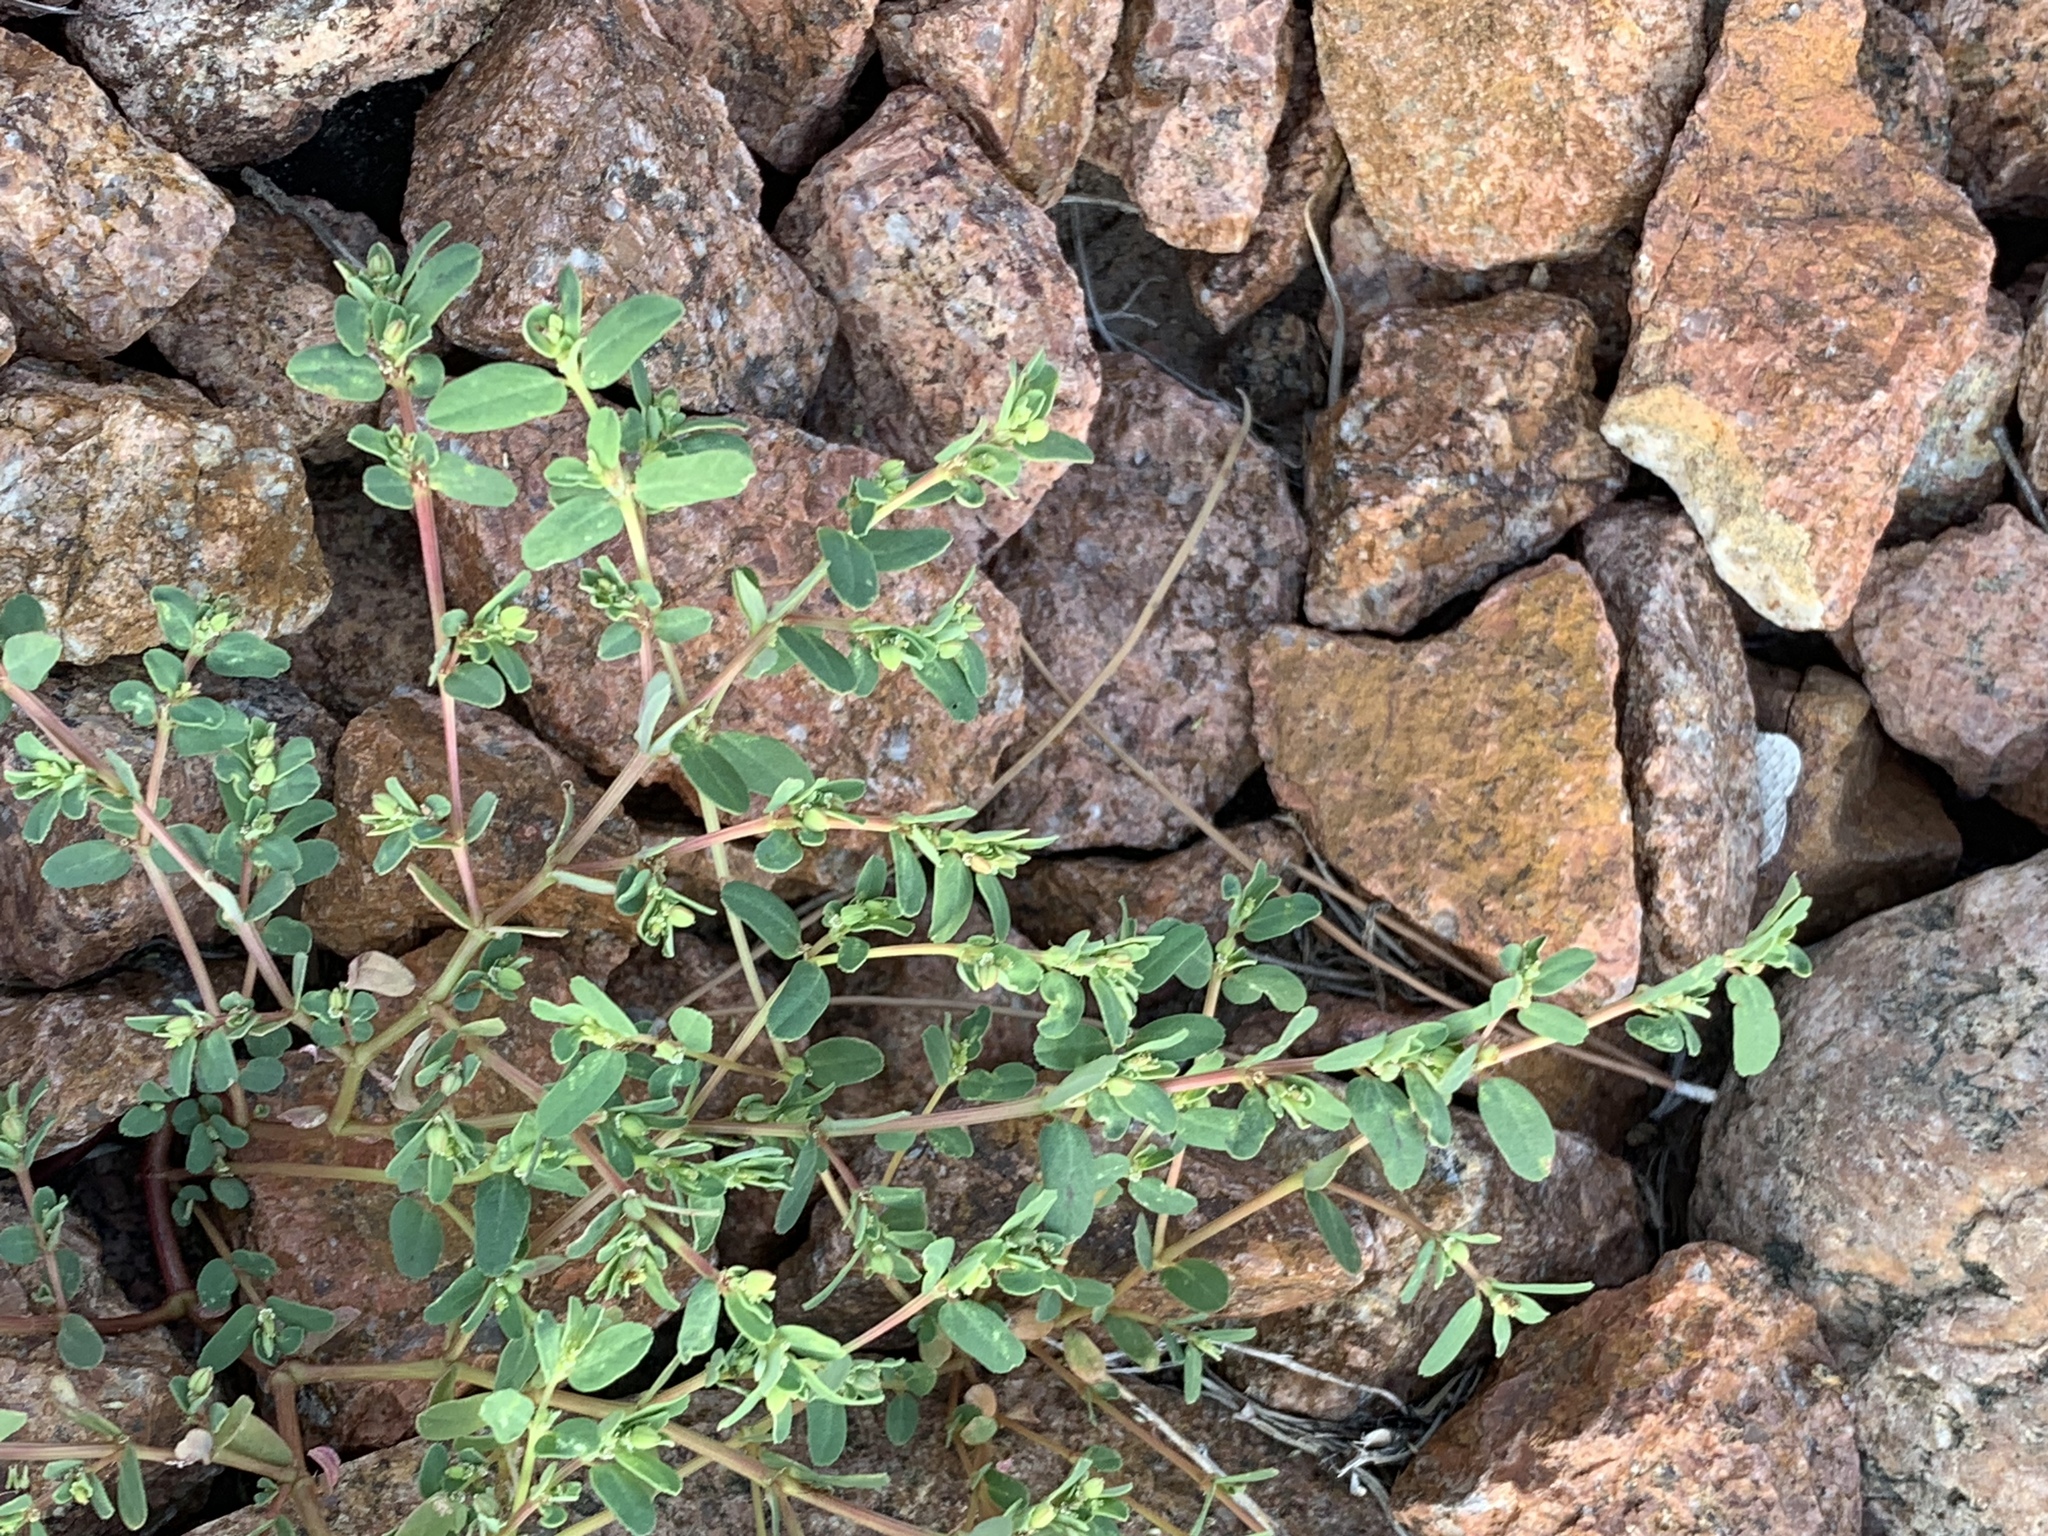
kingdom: Plantae
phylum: Tracheophyta
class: Magnoliopsida
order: Malpighiales
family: Euphorbiaceae
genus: Euphorbia
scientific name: Euphorbia serpillifolia
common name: Thyme-leaf spurge
